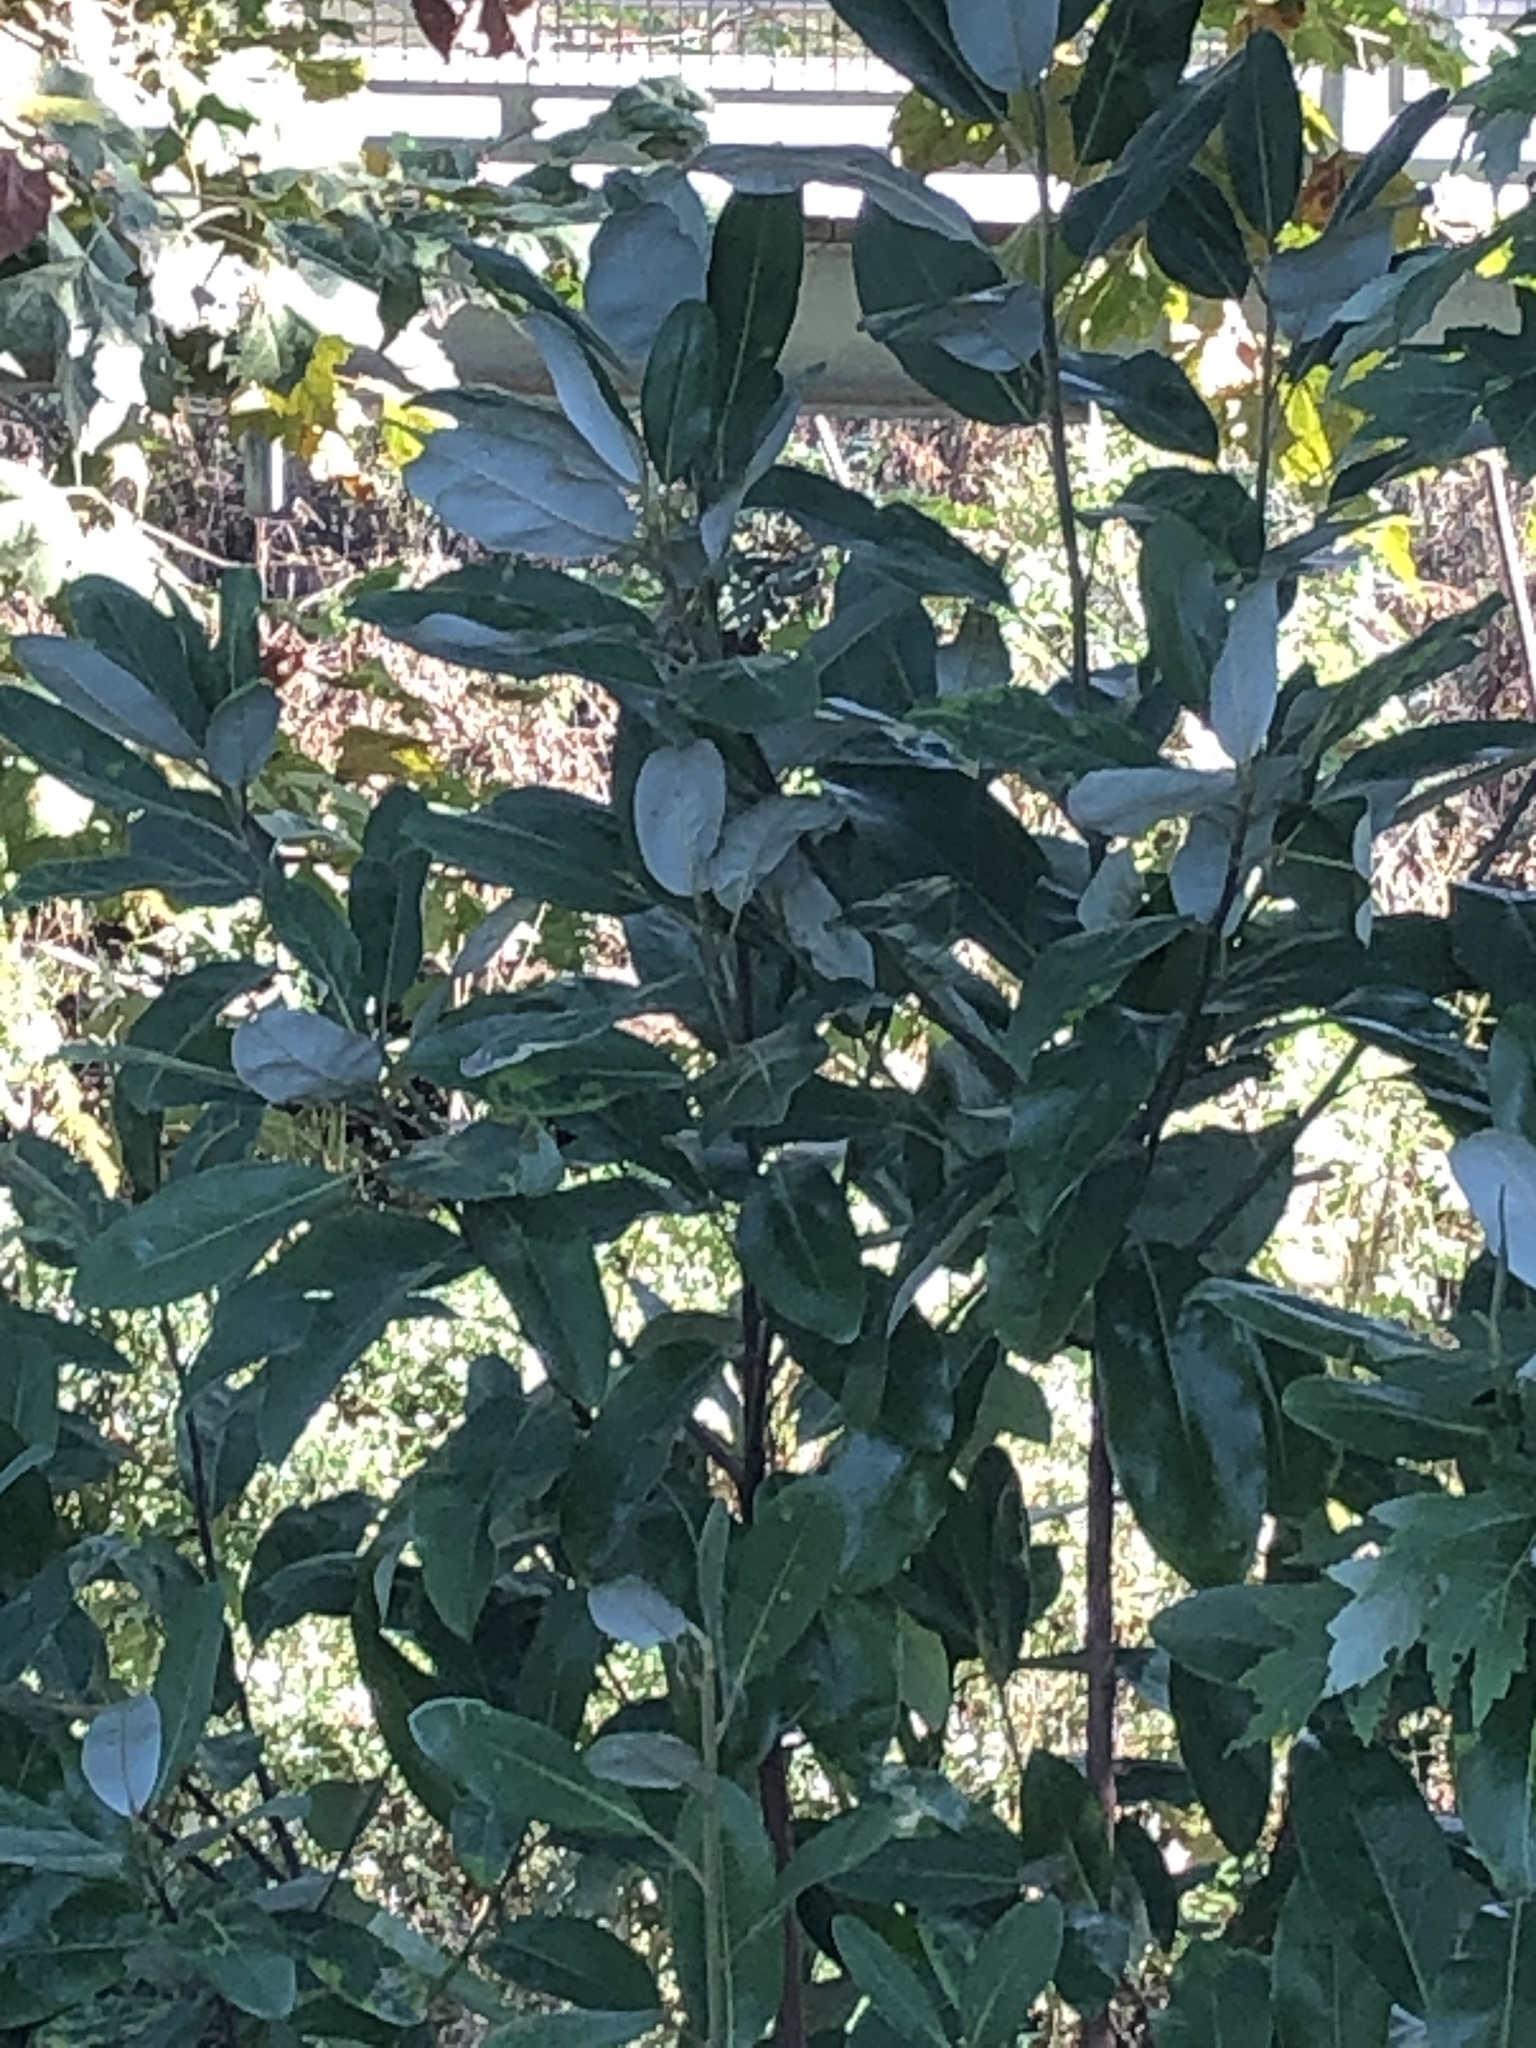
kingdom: Plantae
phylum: Tracheophyta
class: Magnoliopsida
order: Magnoliales
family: Magnoliaceae
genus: Magnolia
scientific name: Magnolia virginiana
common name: Swamp bay
